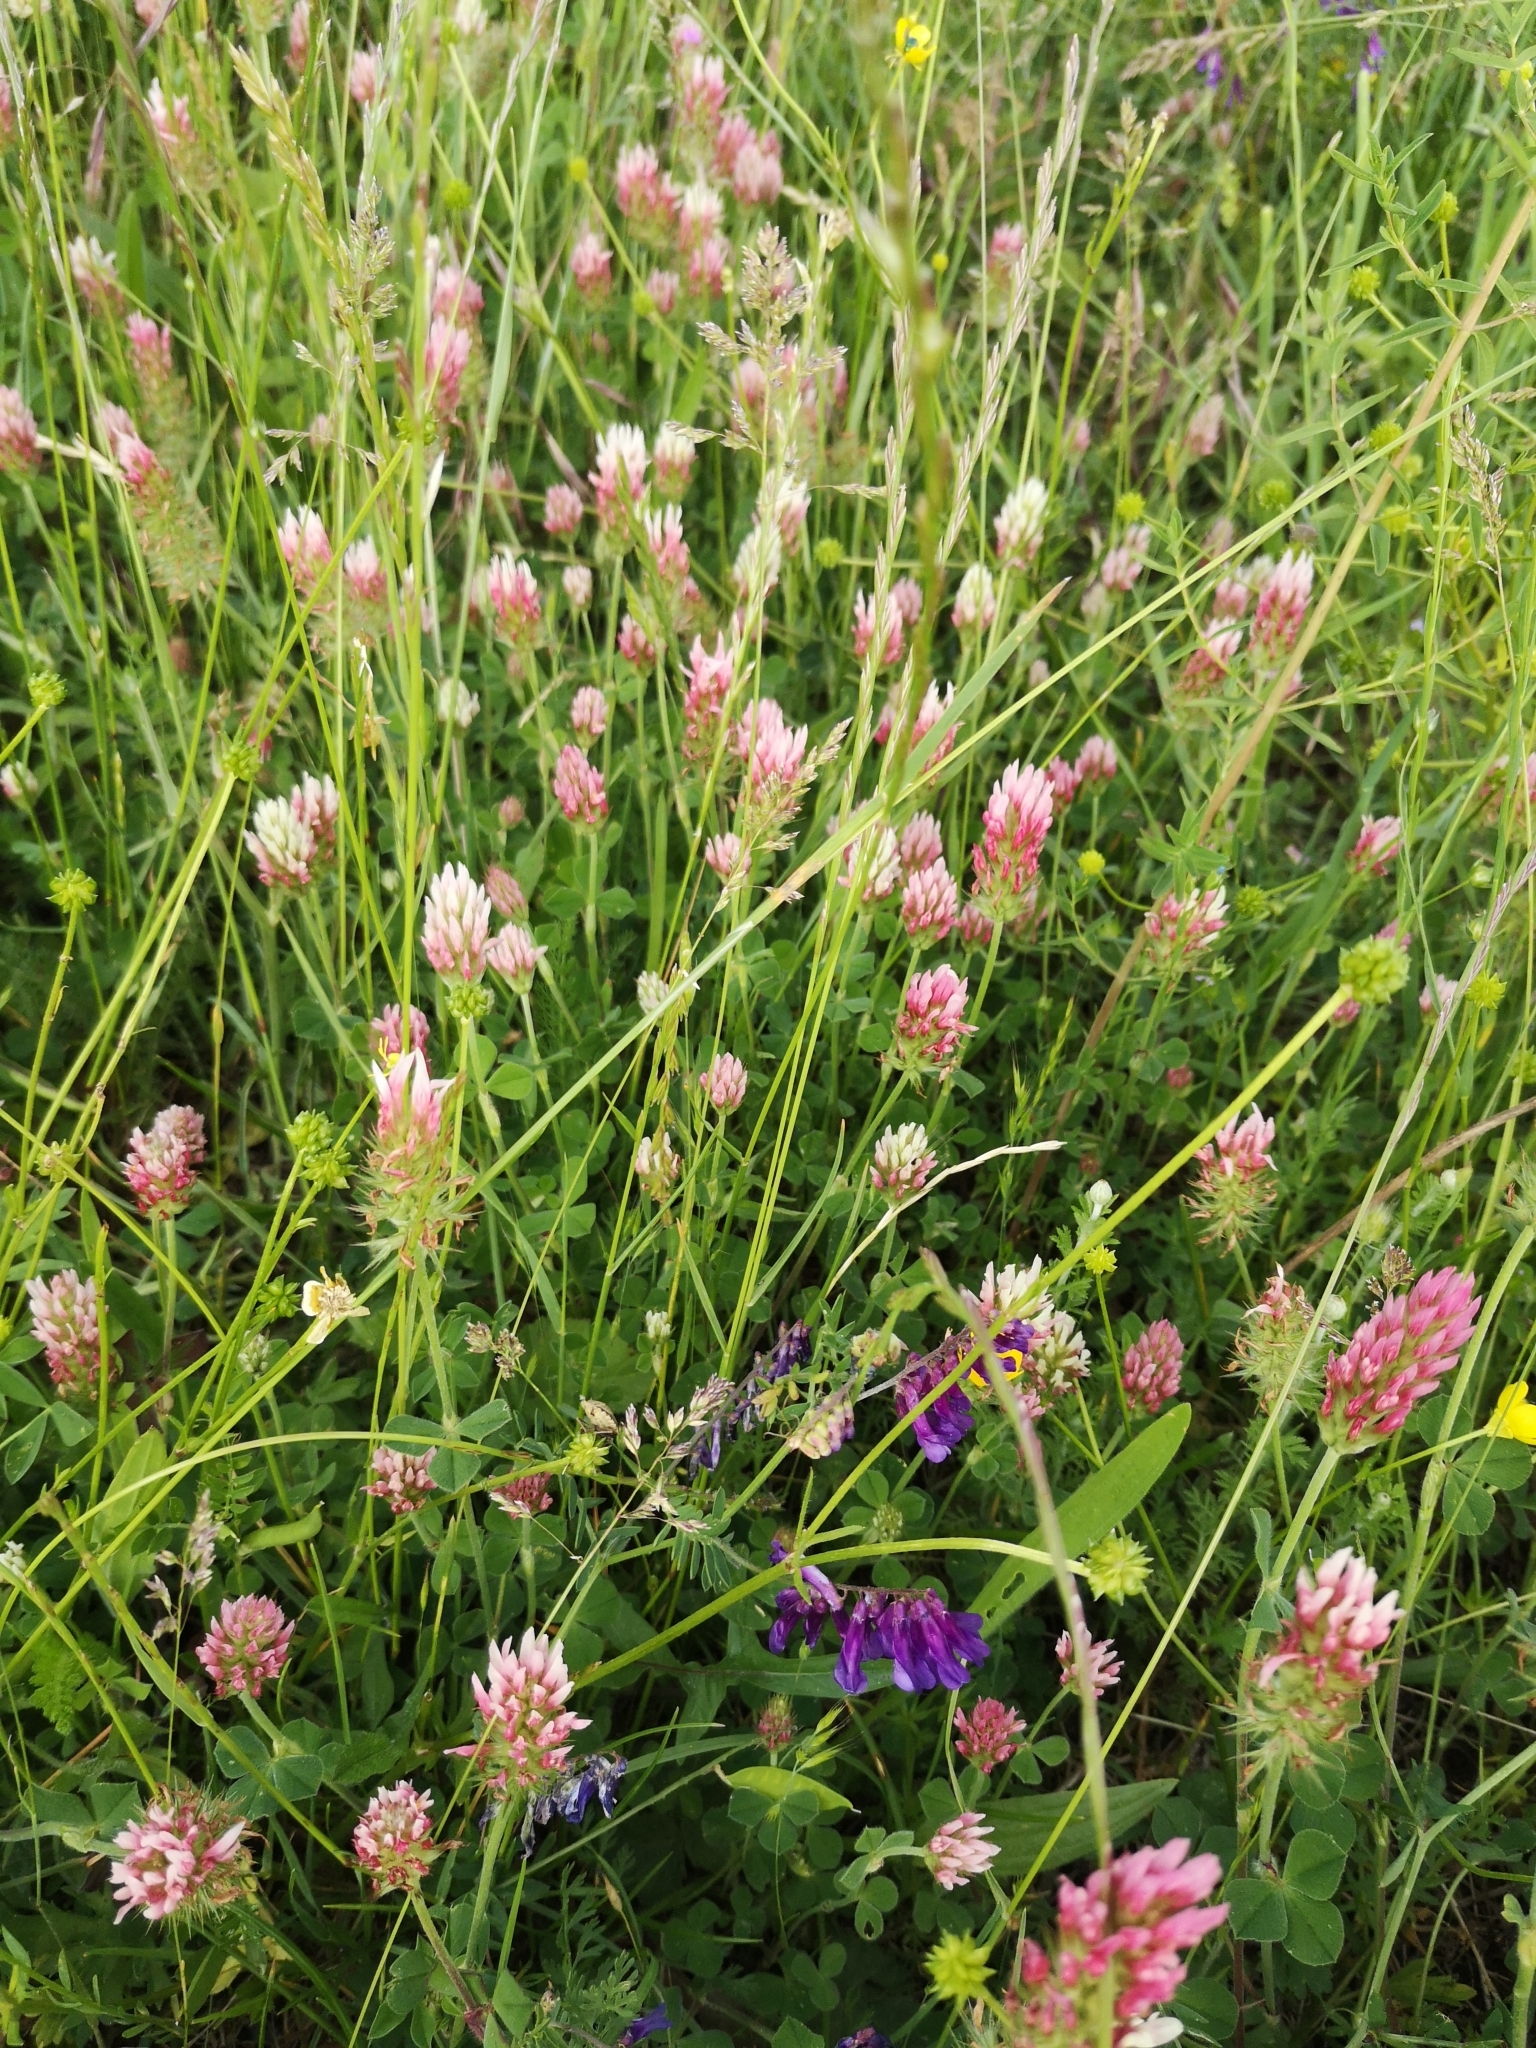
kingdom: Plantae
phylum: Tracheophyta
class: Magnoliopsida
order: Fabales
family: Fabaceae
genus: Trifolium
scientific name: Trifolium incarnatum
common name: Crimson clover
